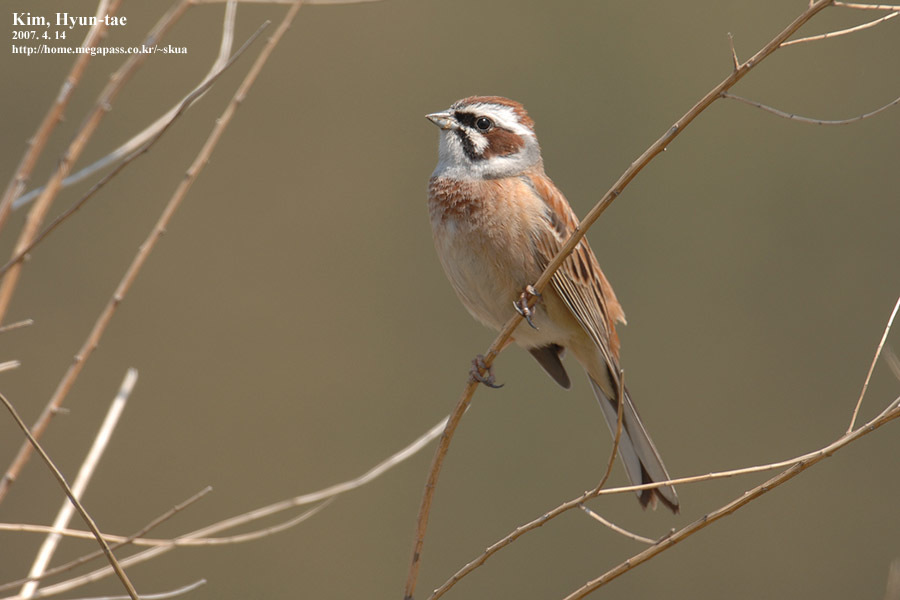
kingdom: Animalia
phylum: Chordata
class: Aves
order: Passeriformes
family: Emberizidae
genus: Emberiza
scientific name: Emberiza cioides
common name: Meadow bunting
